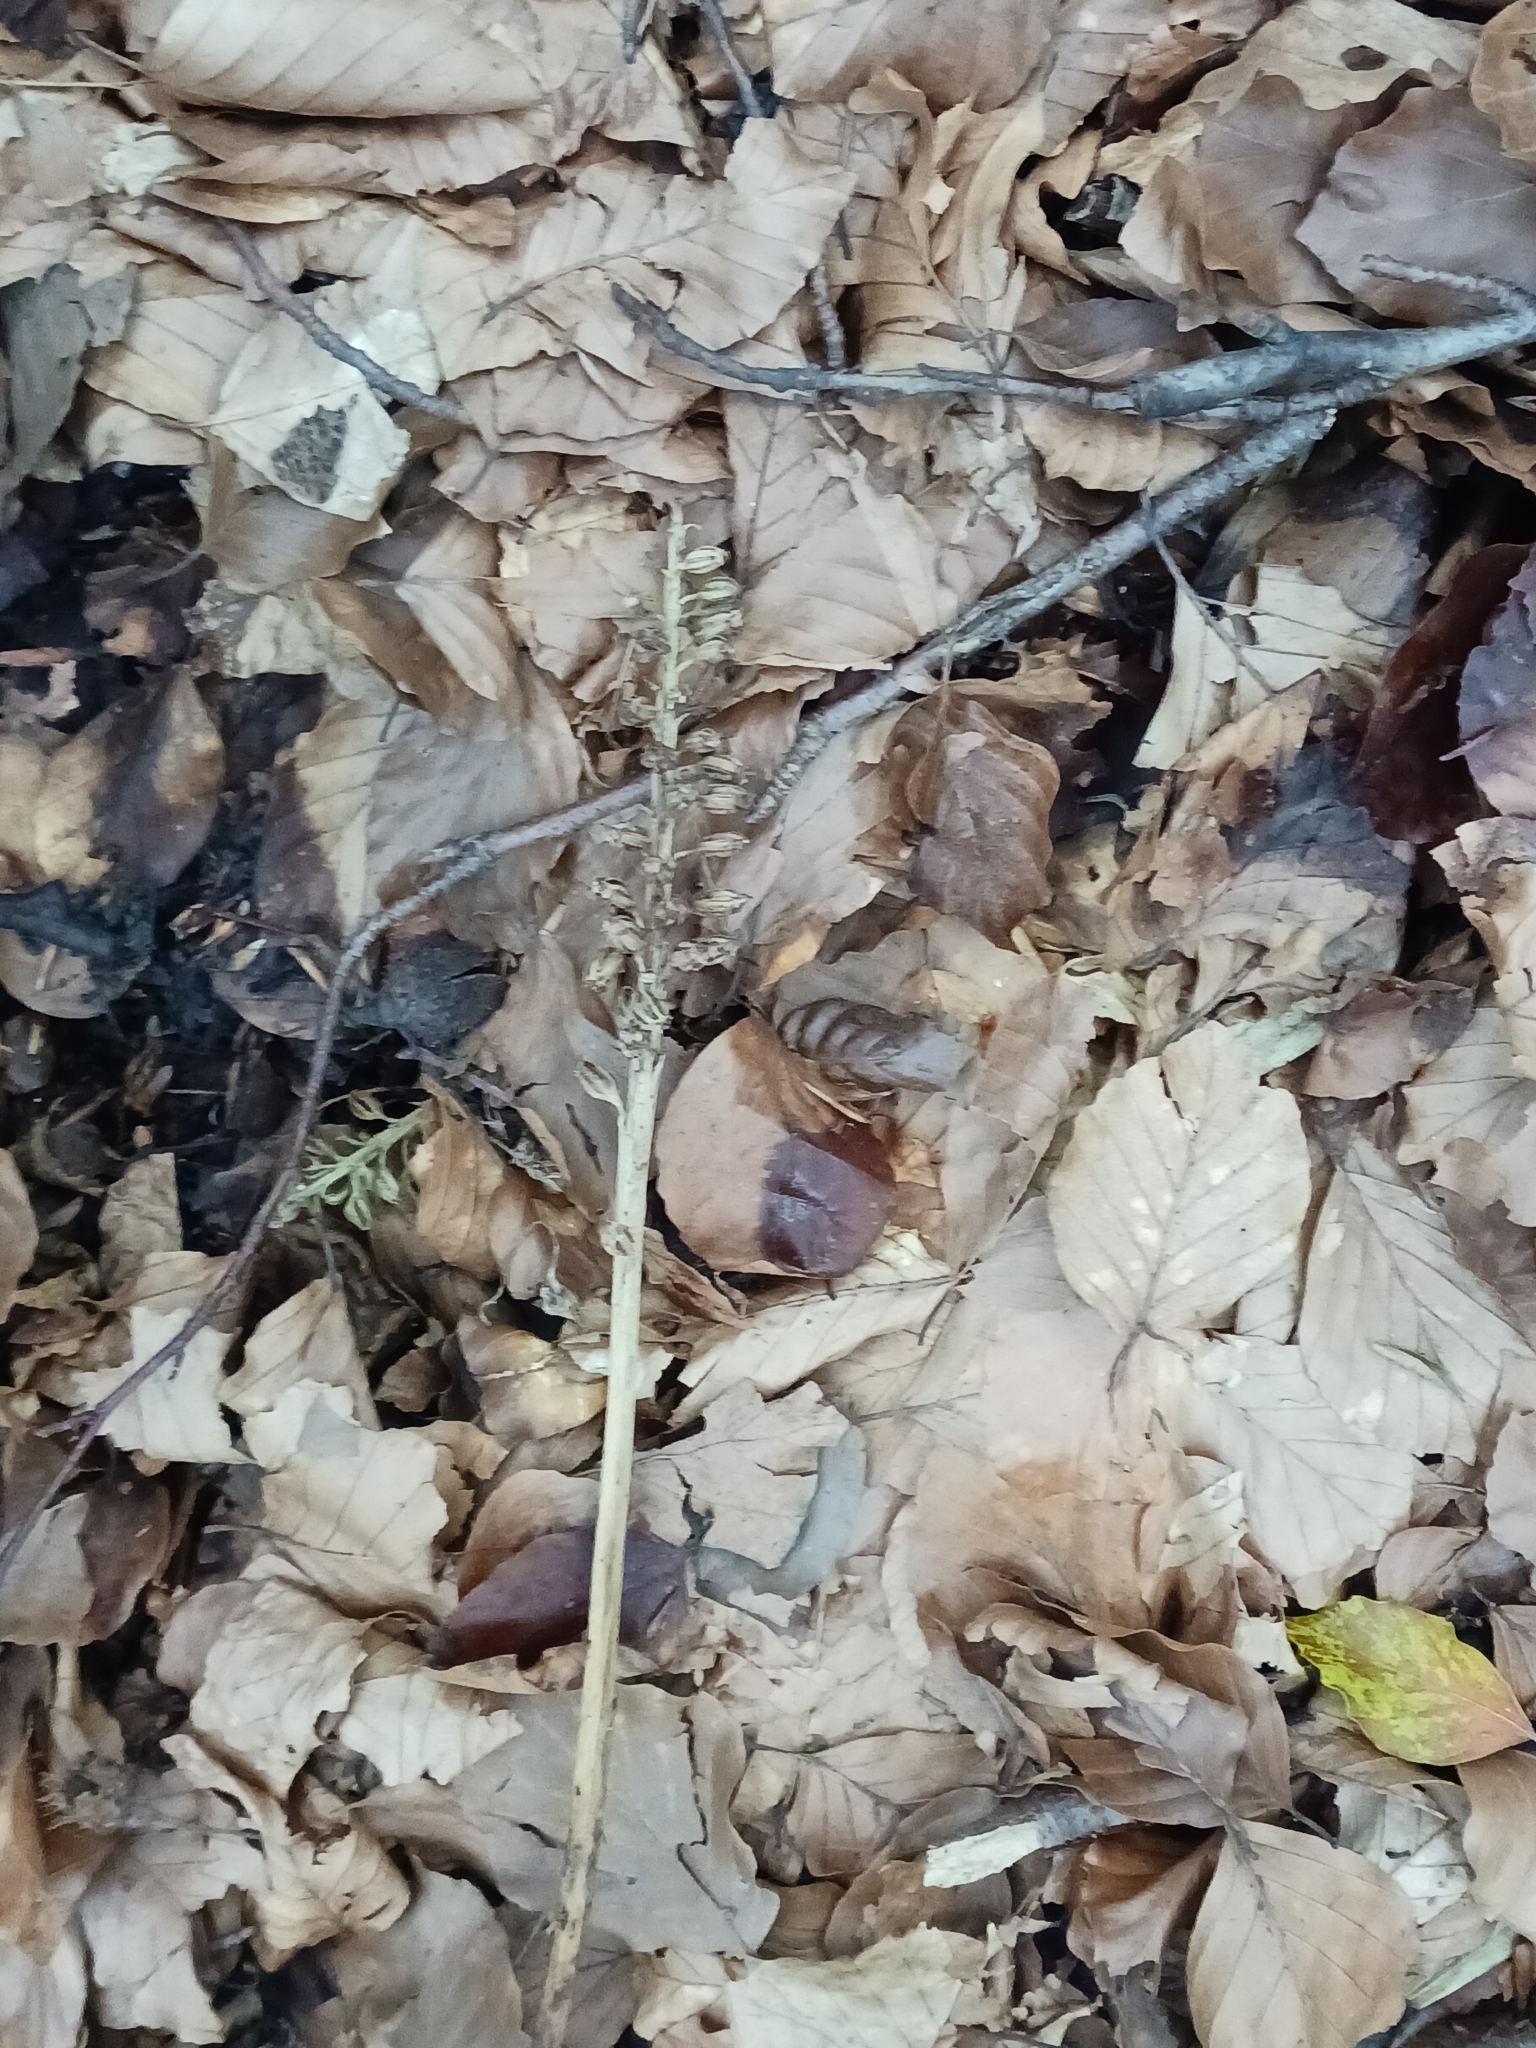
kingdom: Plantae
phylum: Tracheophyta
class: Liliopsida
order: Asparagales
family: Orchidaceae
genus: Neottia
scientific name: Neottia nidus-avis
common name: Bird's-nest orchid
